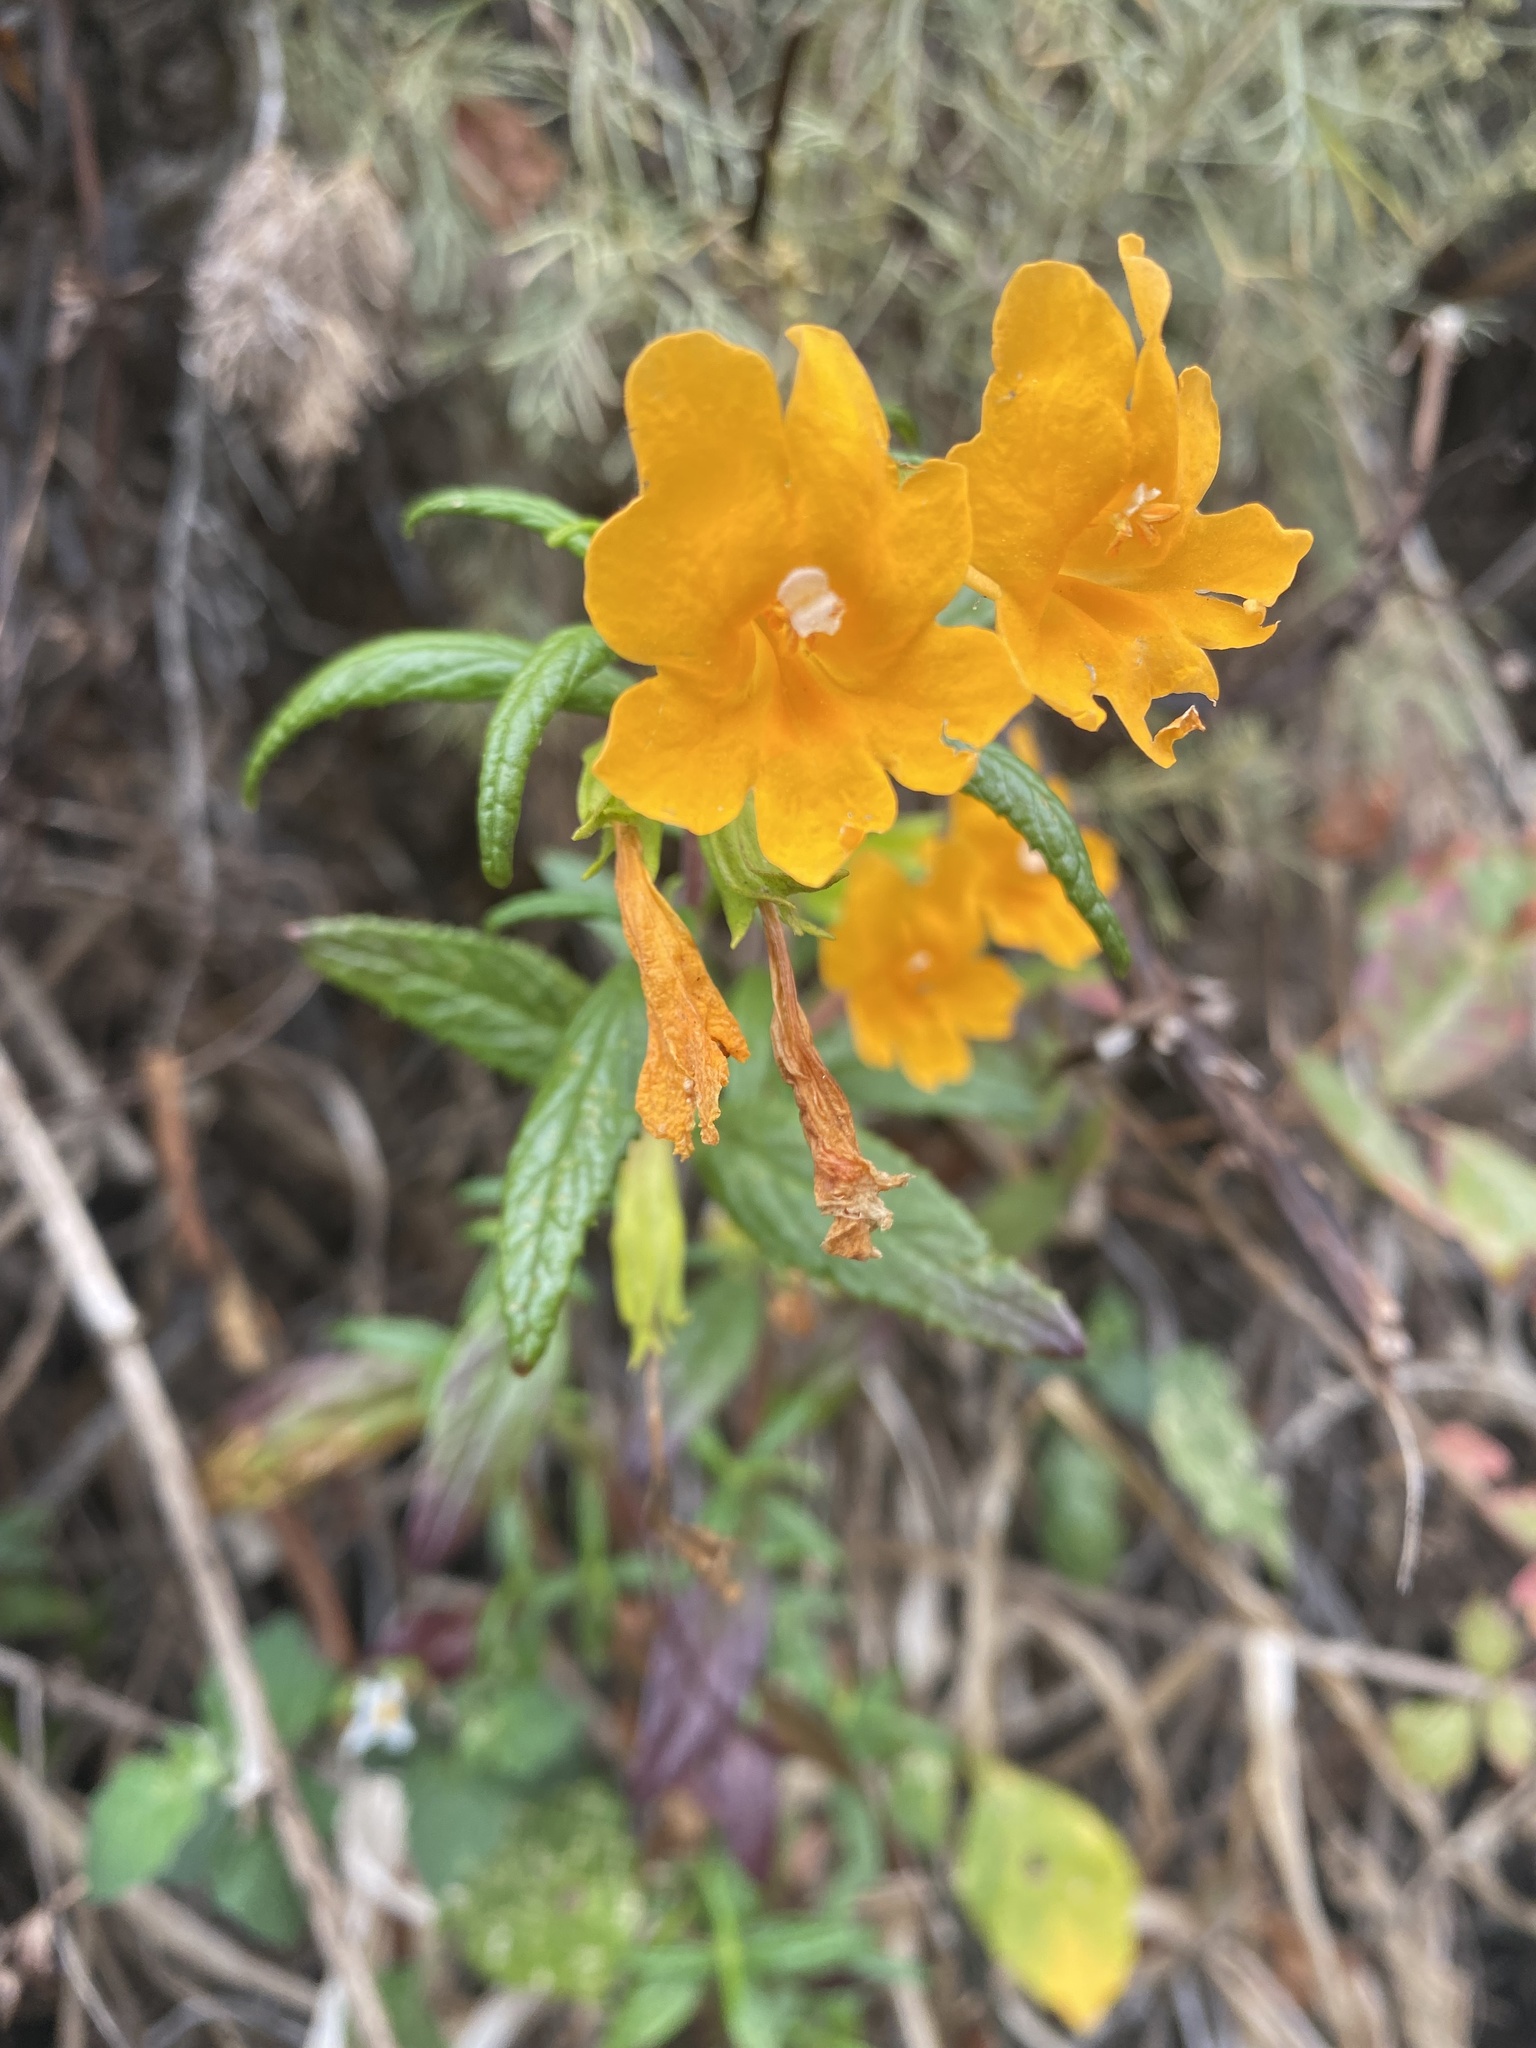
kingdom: Plantae
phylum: Tracheophyta
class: Magnoliopsida
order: Lamiales
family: Phrymaceae
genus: Diplacus
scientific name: Diplacus aurantiacus
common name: Bush monkey-flower
